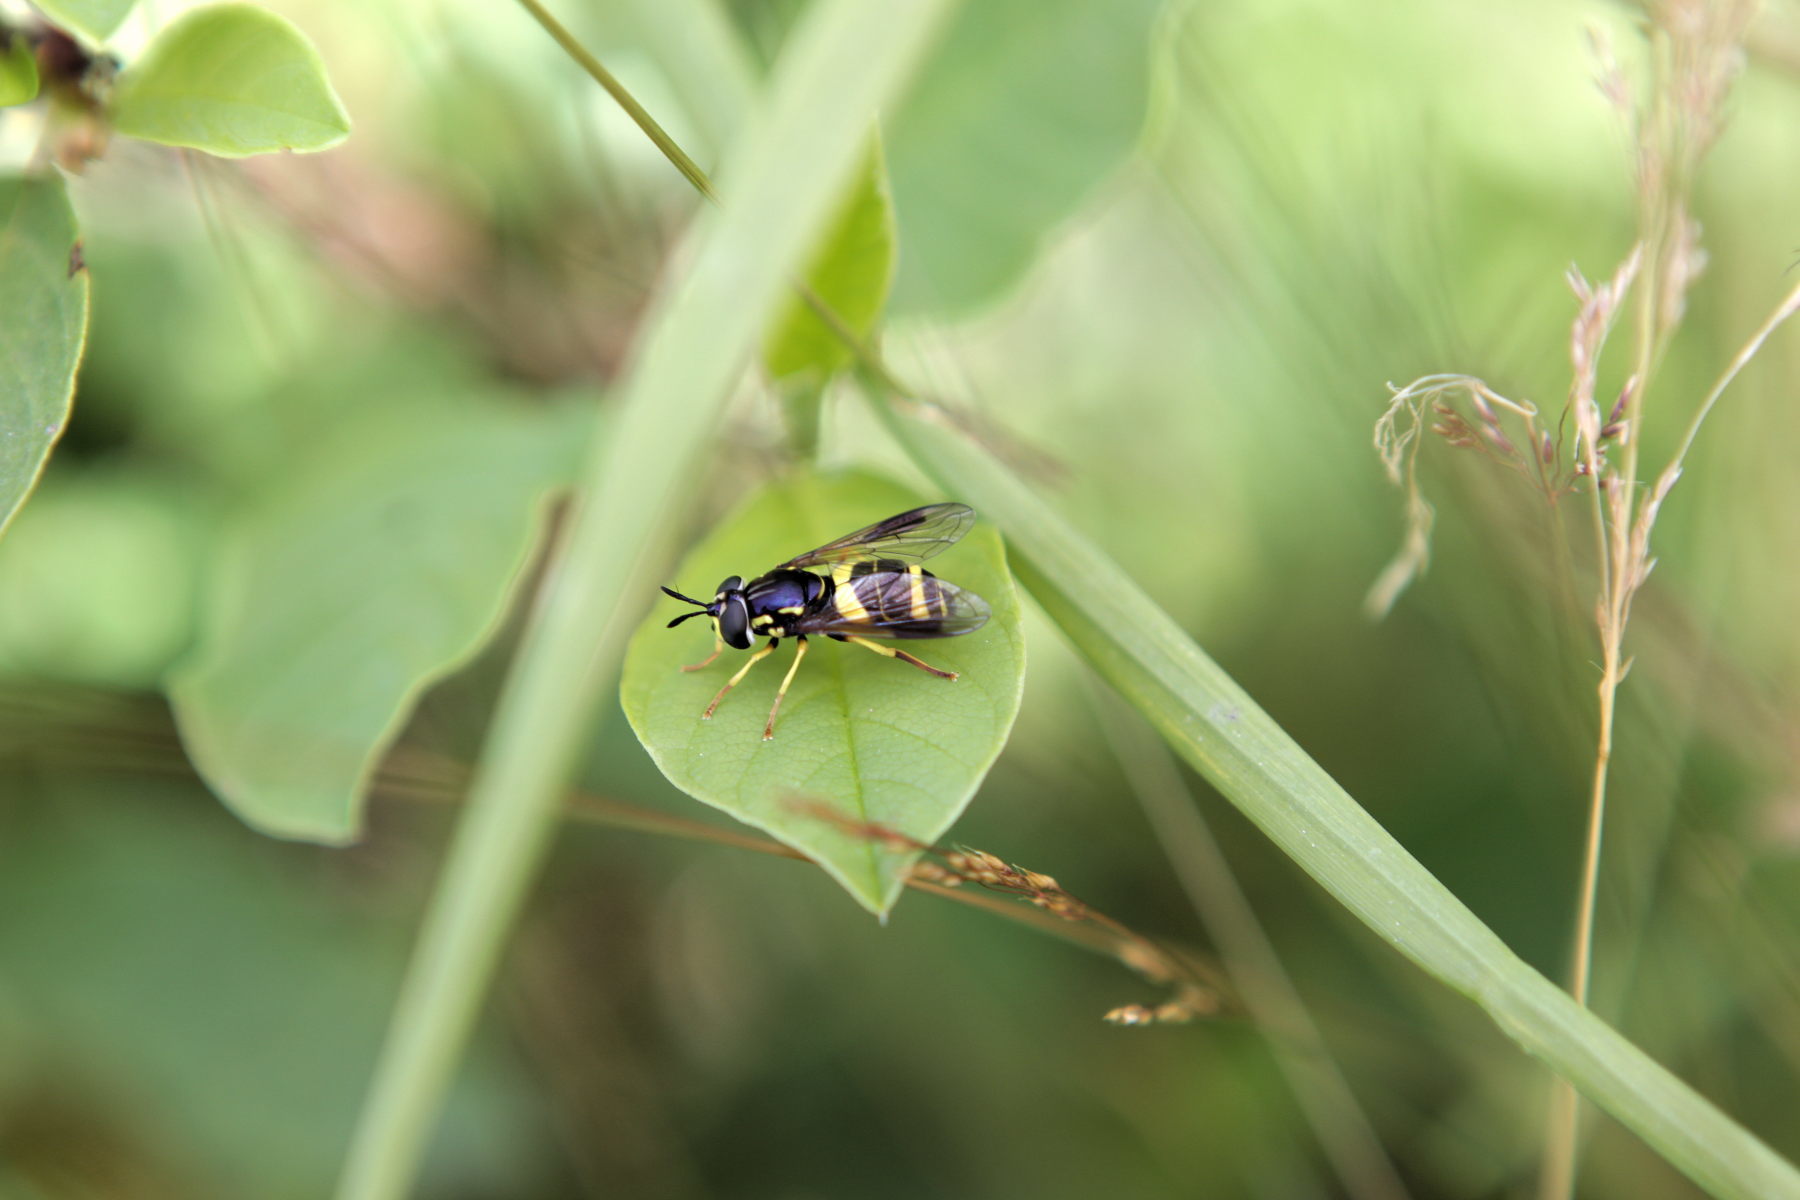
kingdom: Animalia
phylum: Arthropoda
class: Insecta
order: Diptera
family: Syrphidae
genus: Chrysotoxum
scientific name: Chrysotoxum bicincta
